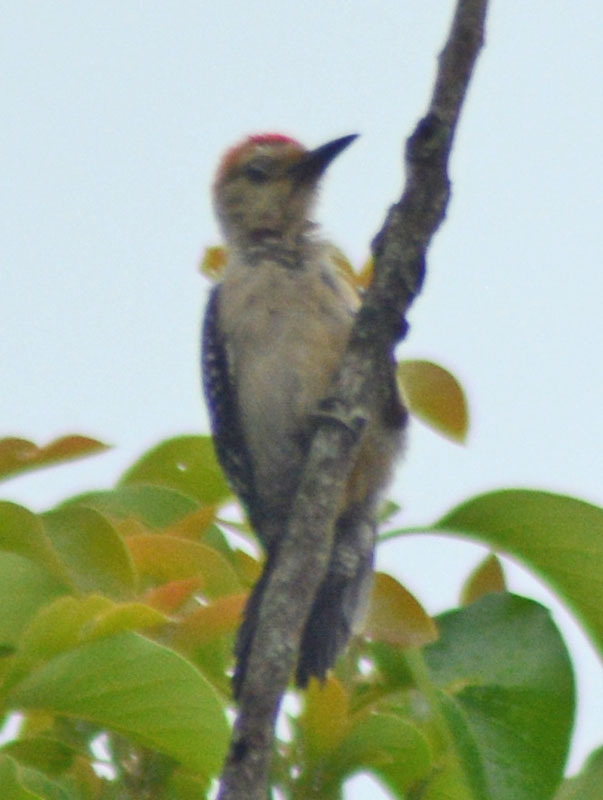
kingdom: Animalia
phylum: Chordata
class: Aves
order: Piciformes
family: Picidae
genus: Melanerpes
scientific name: Melanerpes aurifrons
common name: Golden-fronted woodpecker
